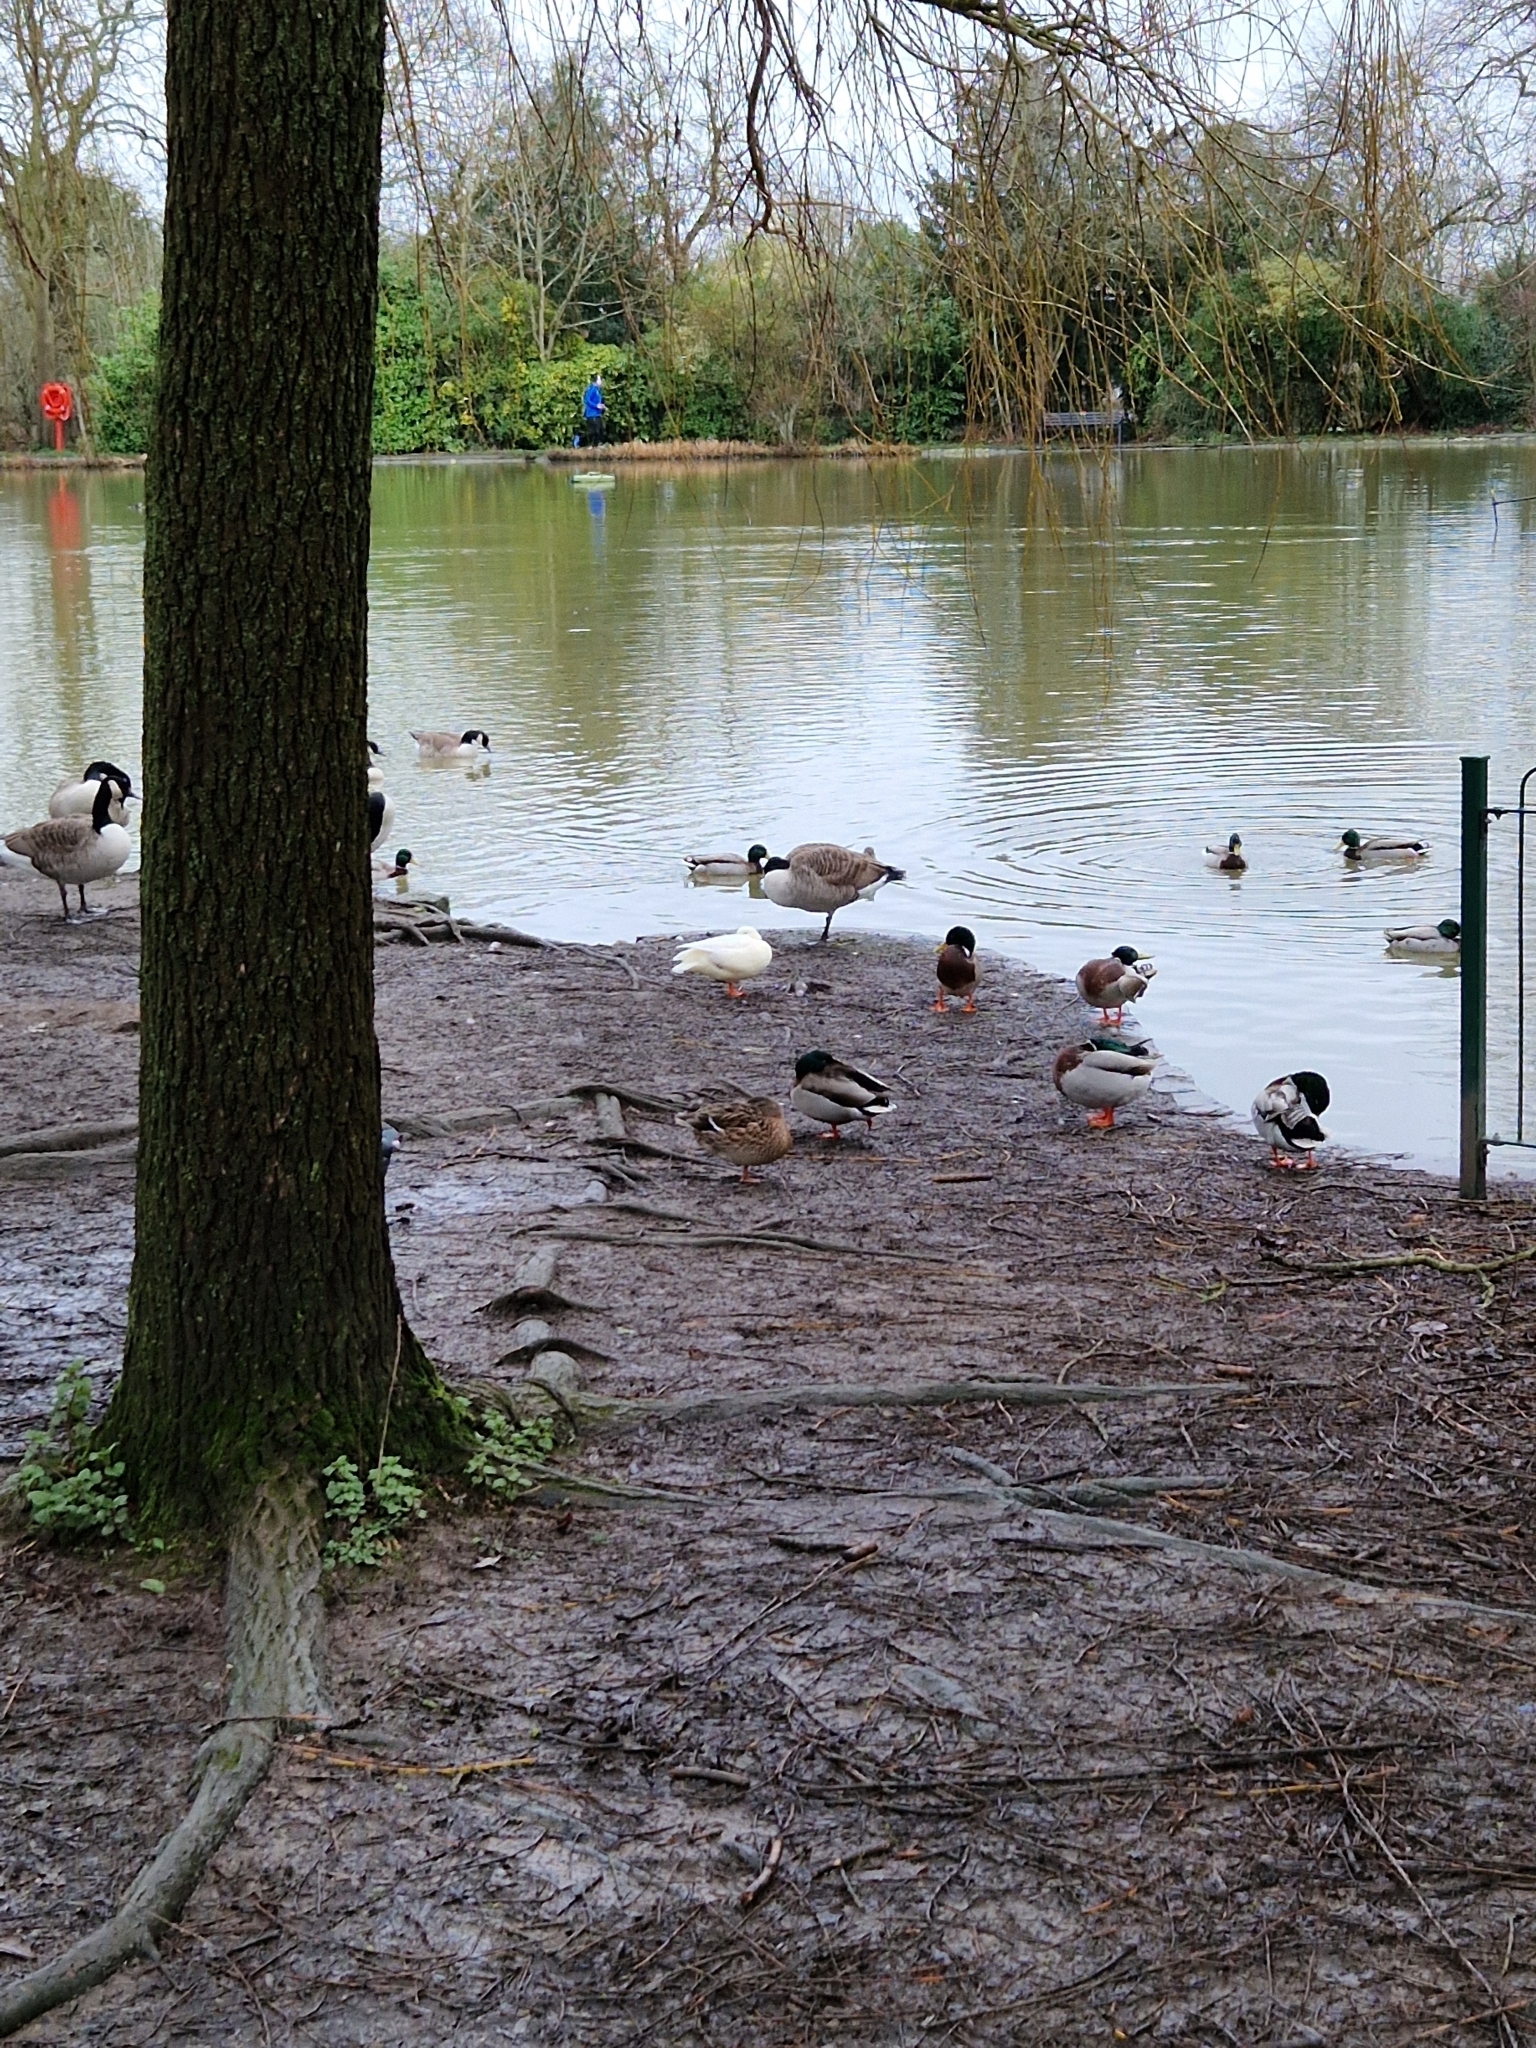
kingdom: Animalia
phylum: Chordata
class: Aves
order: Anseriformes
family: Anatidae
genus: Anas
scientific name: Anas platyrhynchos
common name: Mallard
